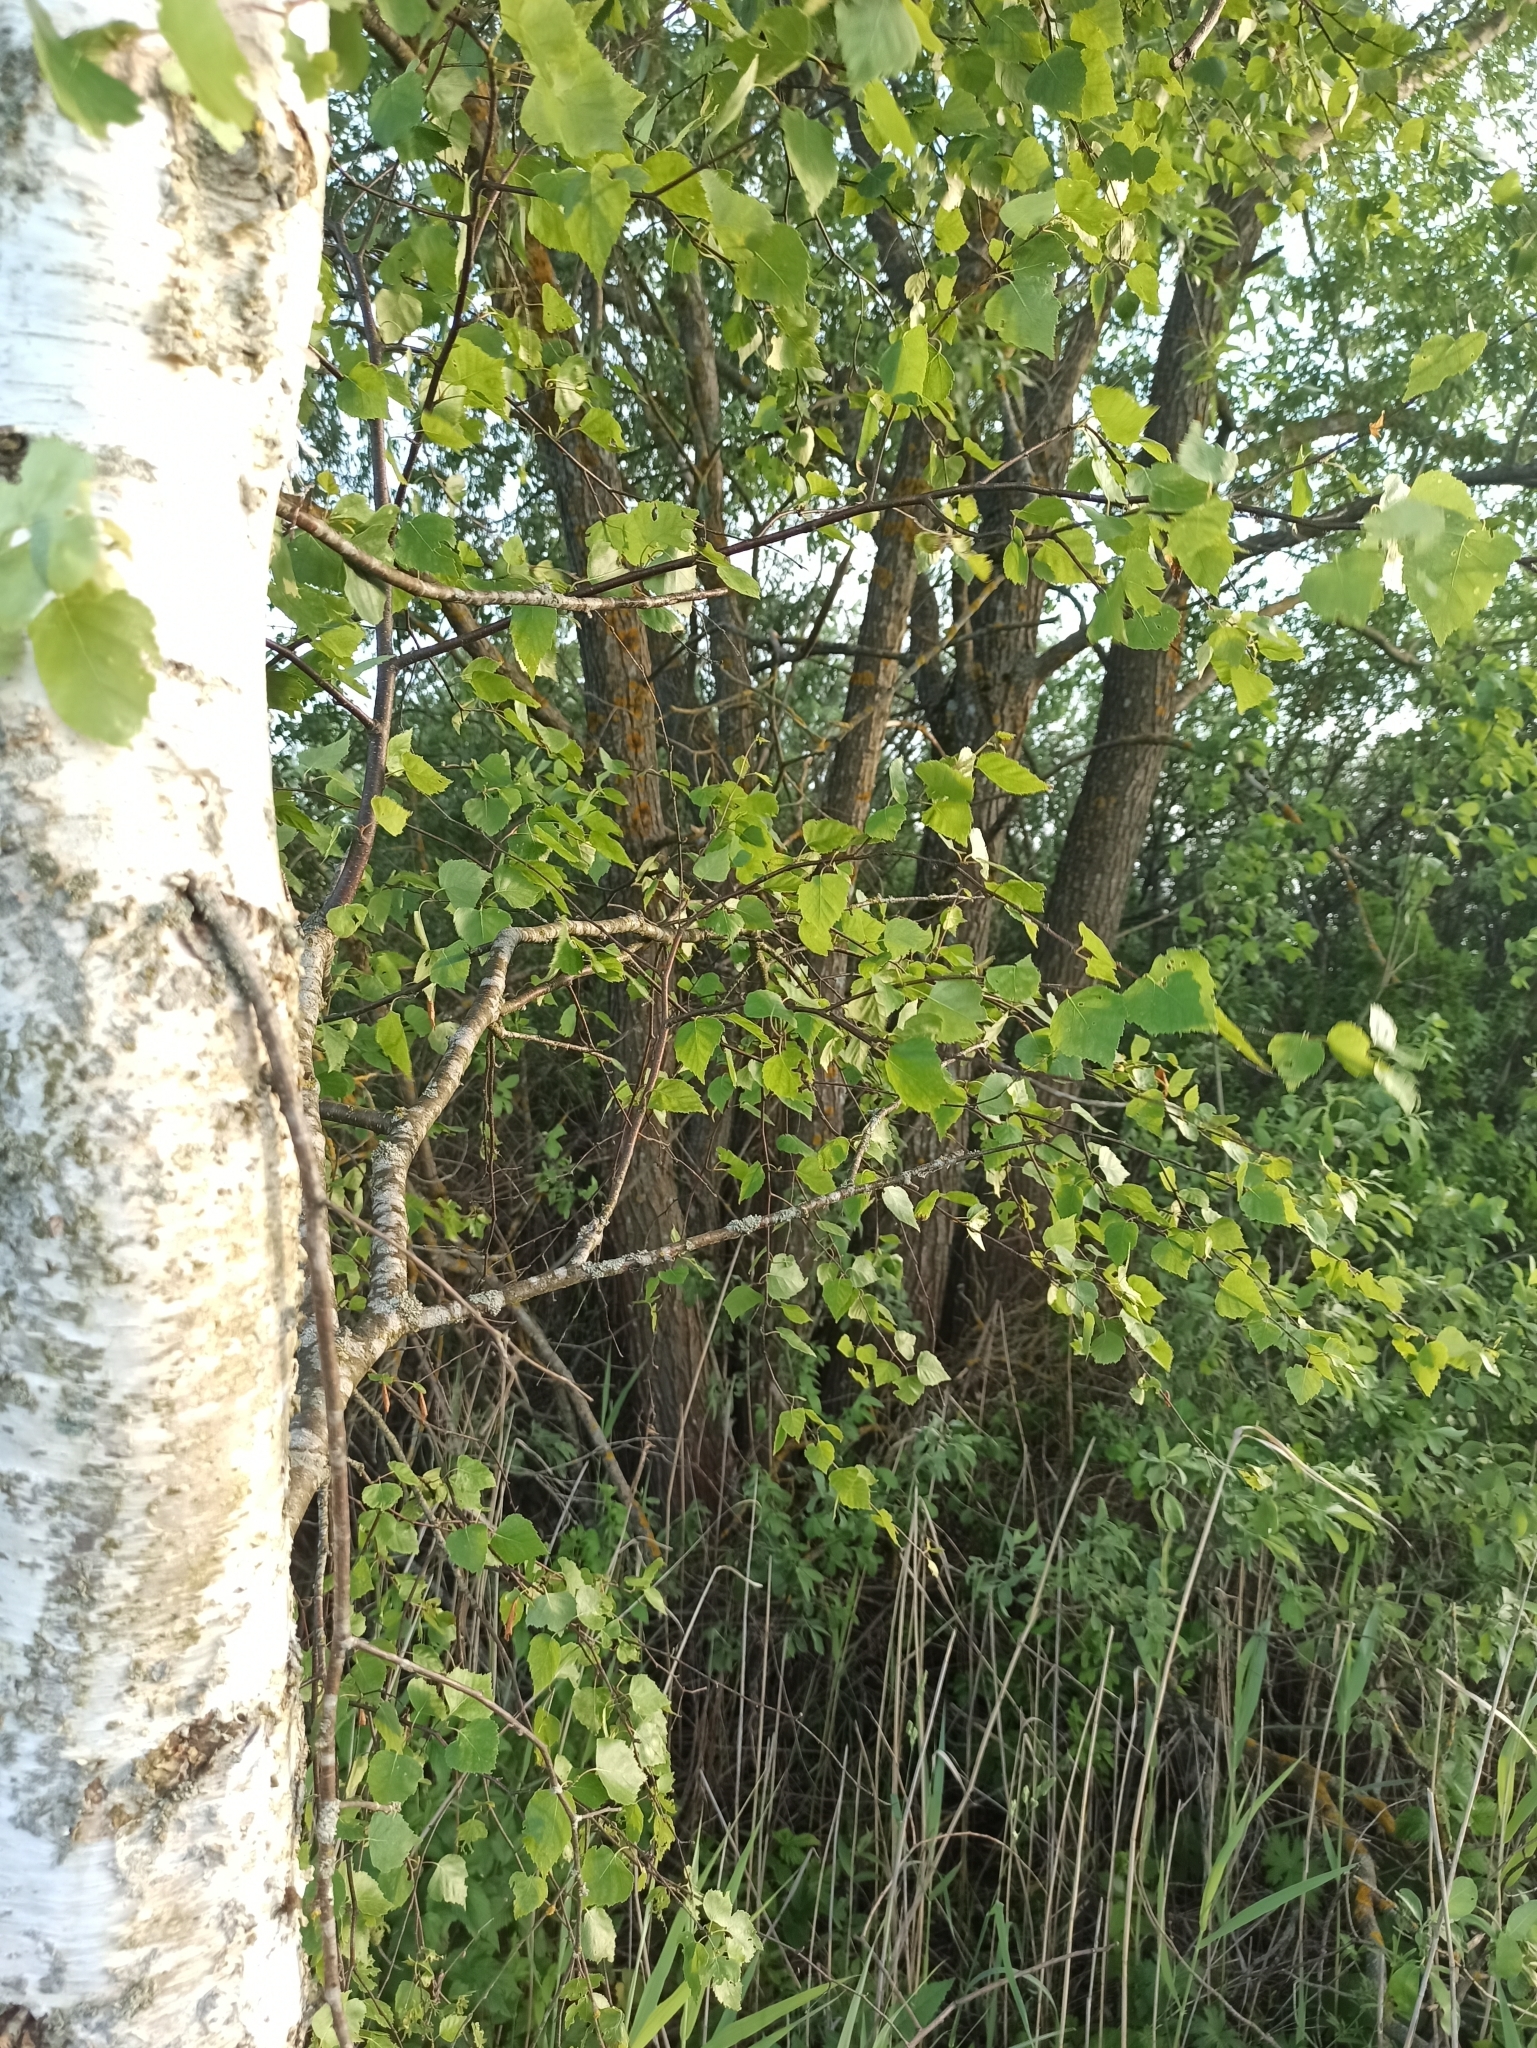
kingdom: Plantae
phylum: Tracheophyta
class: Magnoliopsida
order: Fagales
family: Betulaceae
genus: Betula
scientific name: Betula pendula
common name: Silver birch
